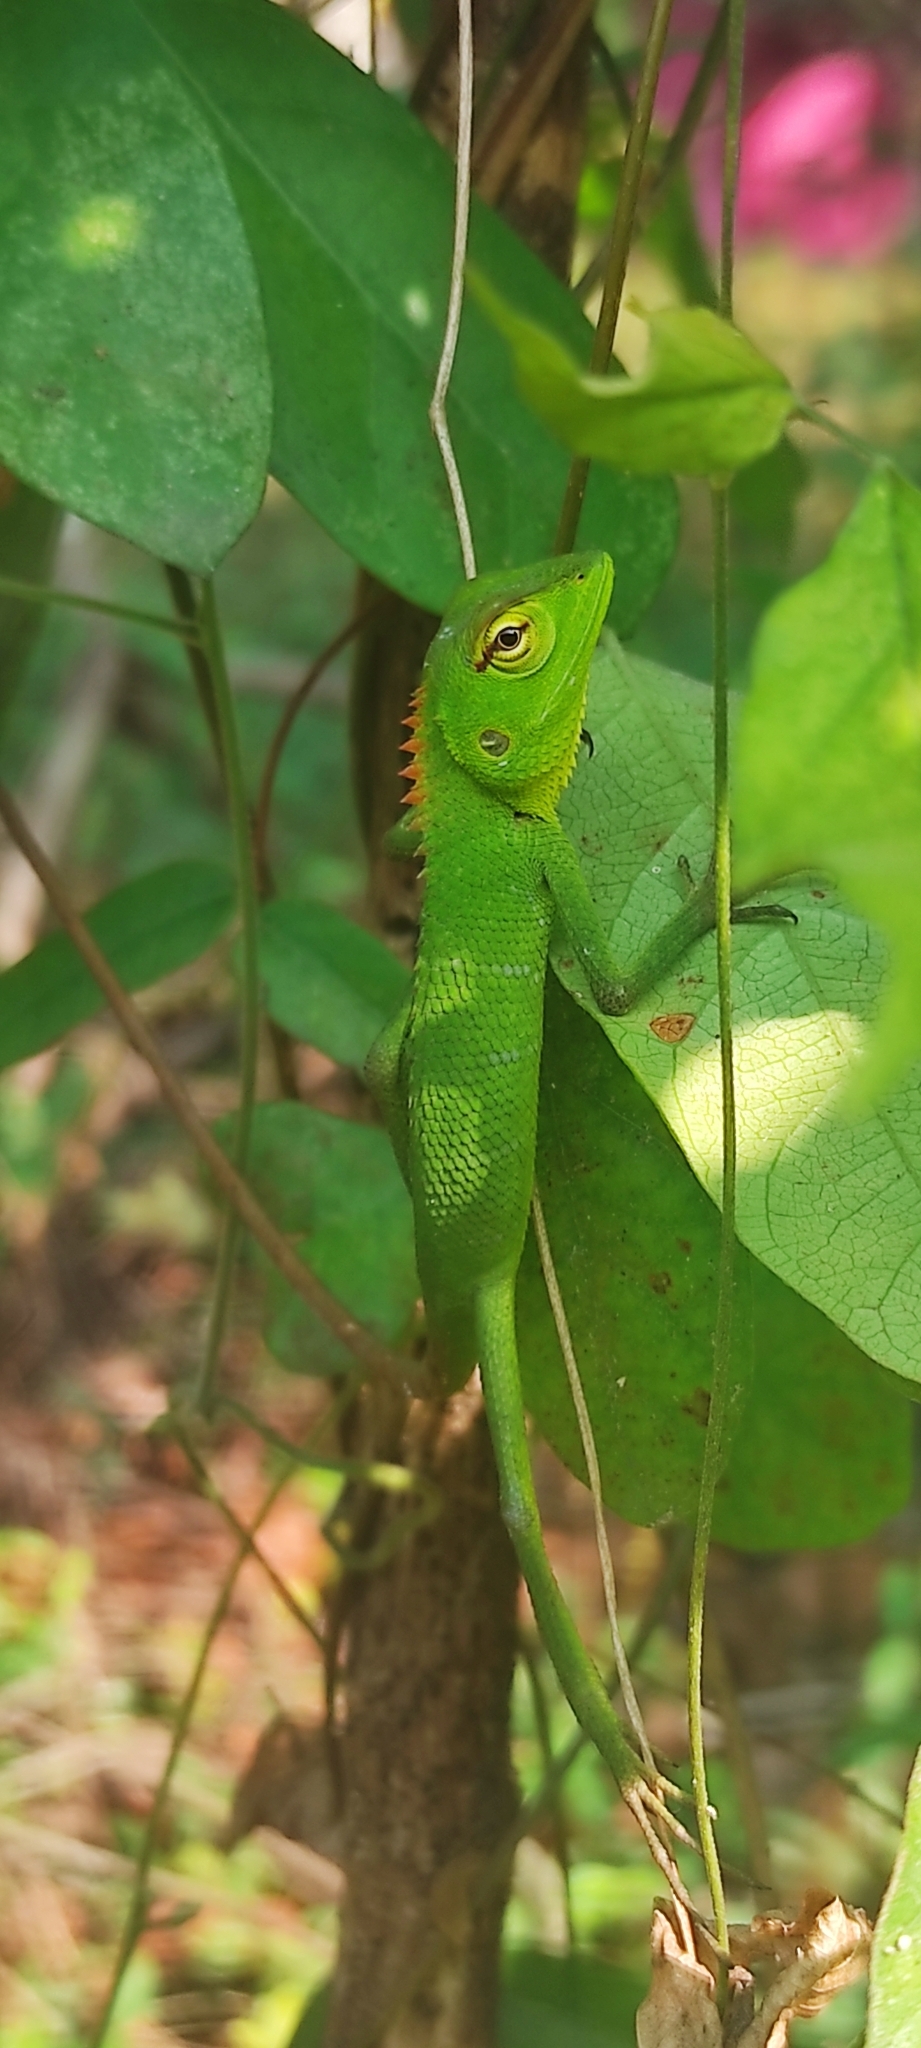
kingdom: Animalia
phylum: Chordata
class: Squamata
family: Agamidae
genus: Calotes
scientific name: Calotes calotes
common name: Common green forest lizard
